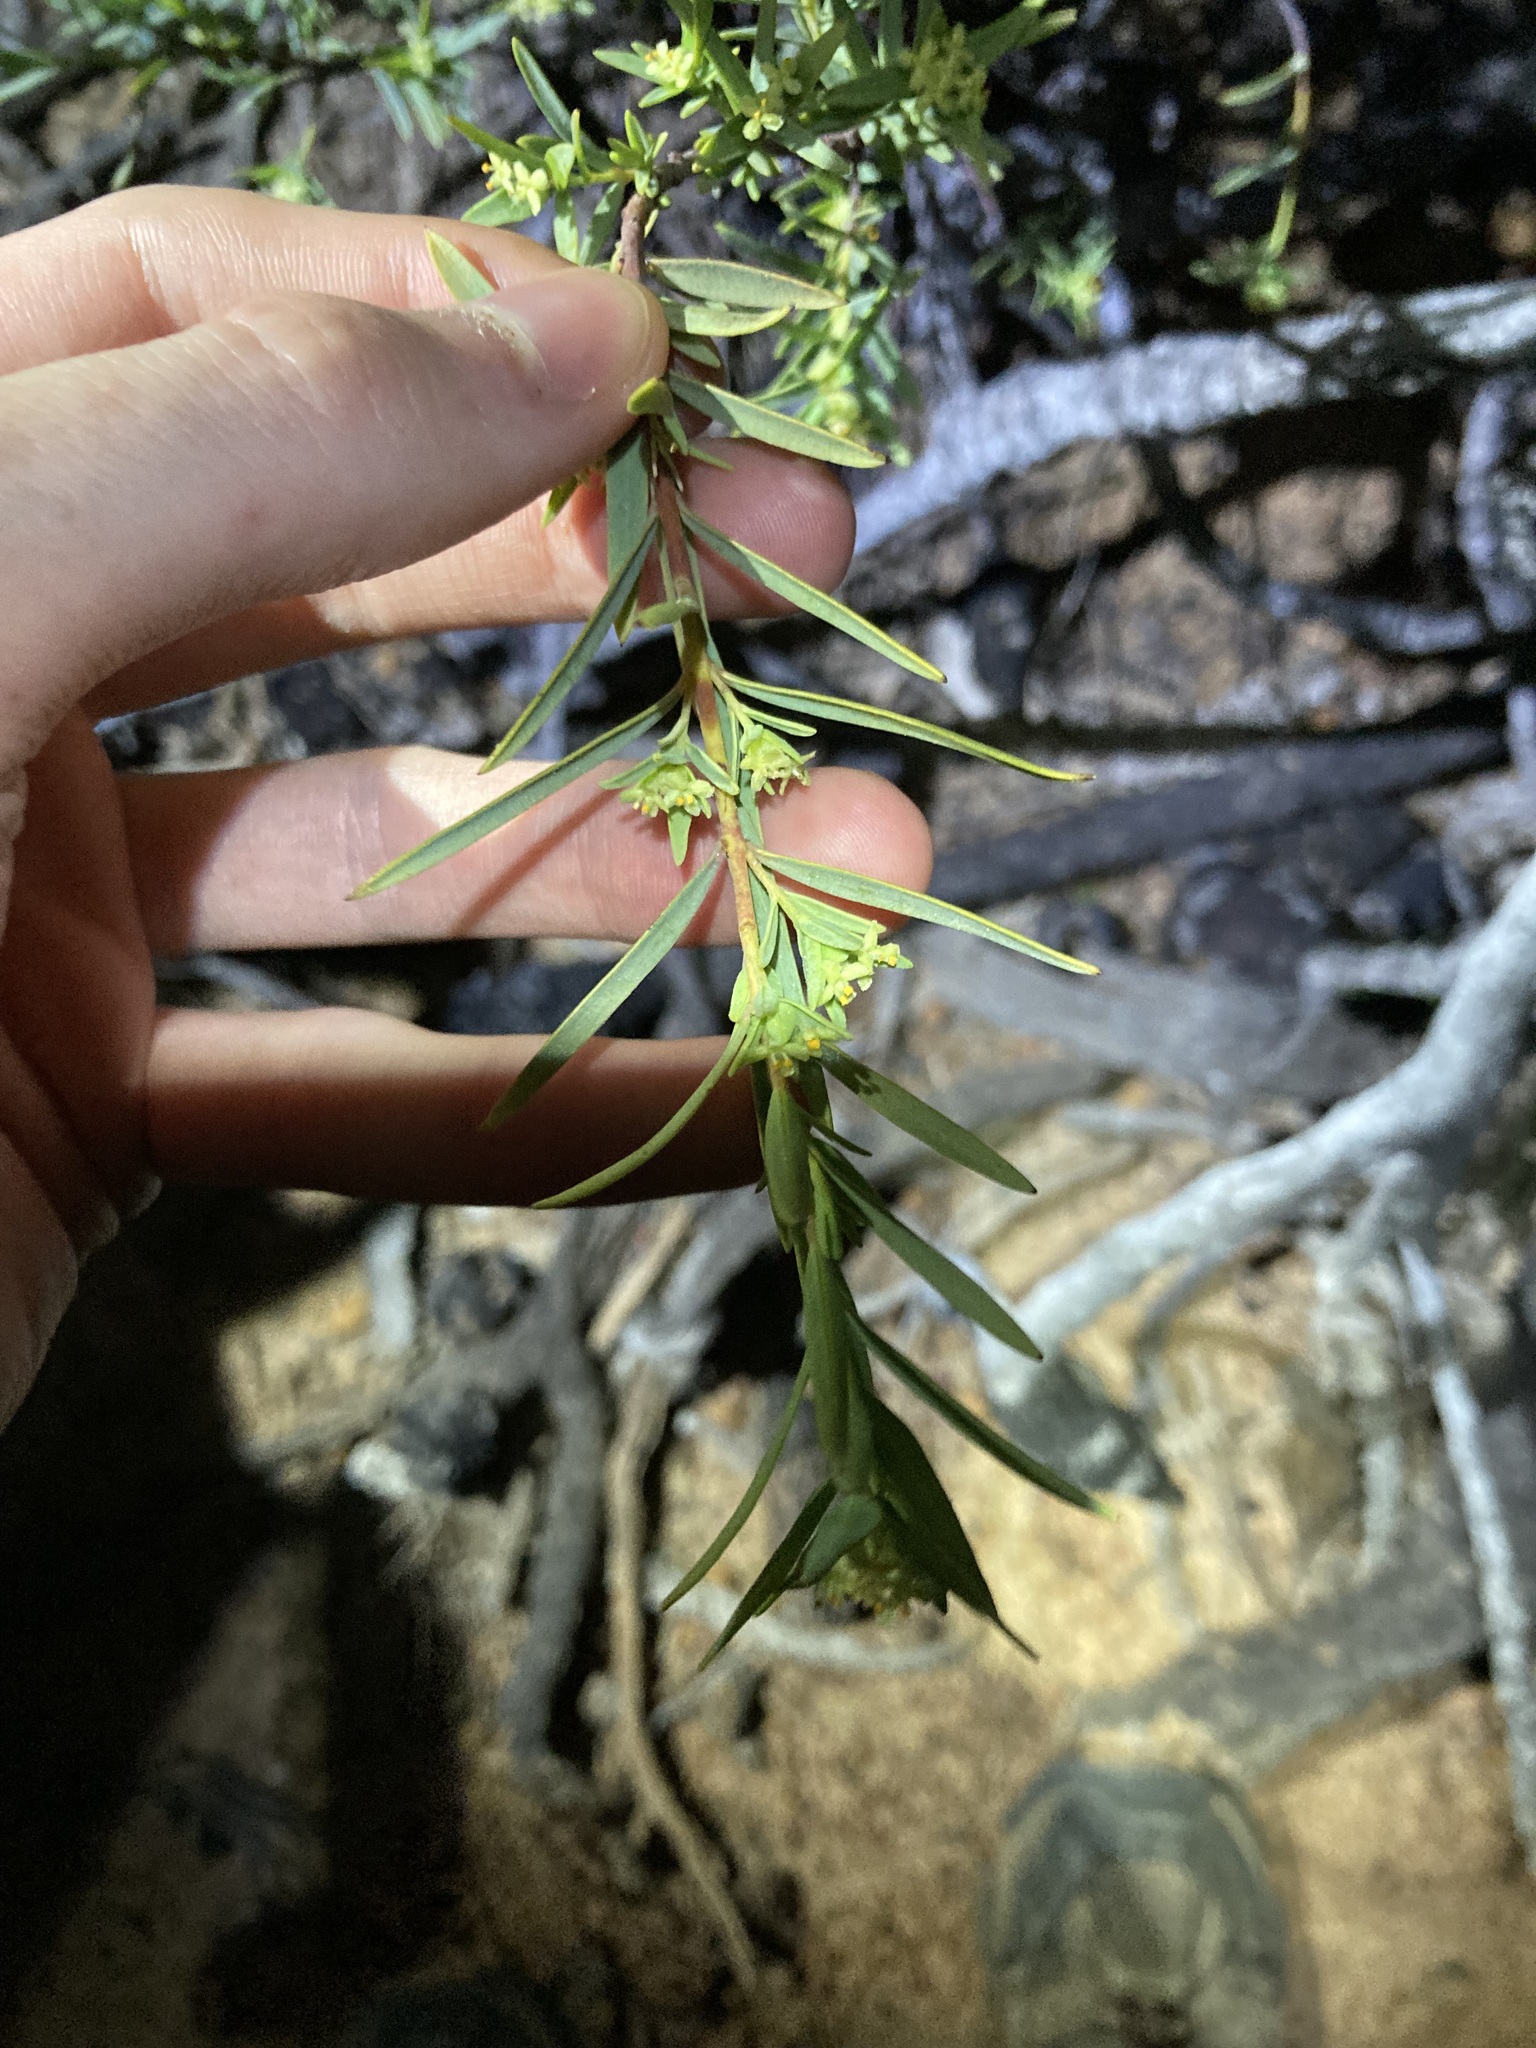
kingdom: Plantae
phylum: Tracheophyta
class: Magnoliopsida
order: Malvales
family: Thymelaeaceae
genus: Pimelea
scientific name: Pimelea microcephala
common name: Mallee riceflower
